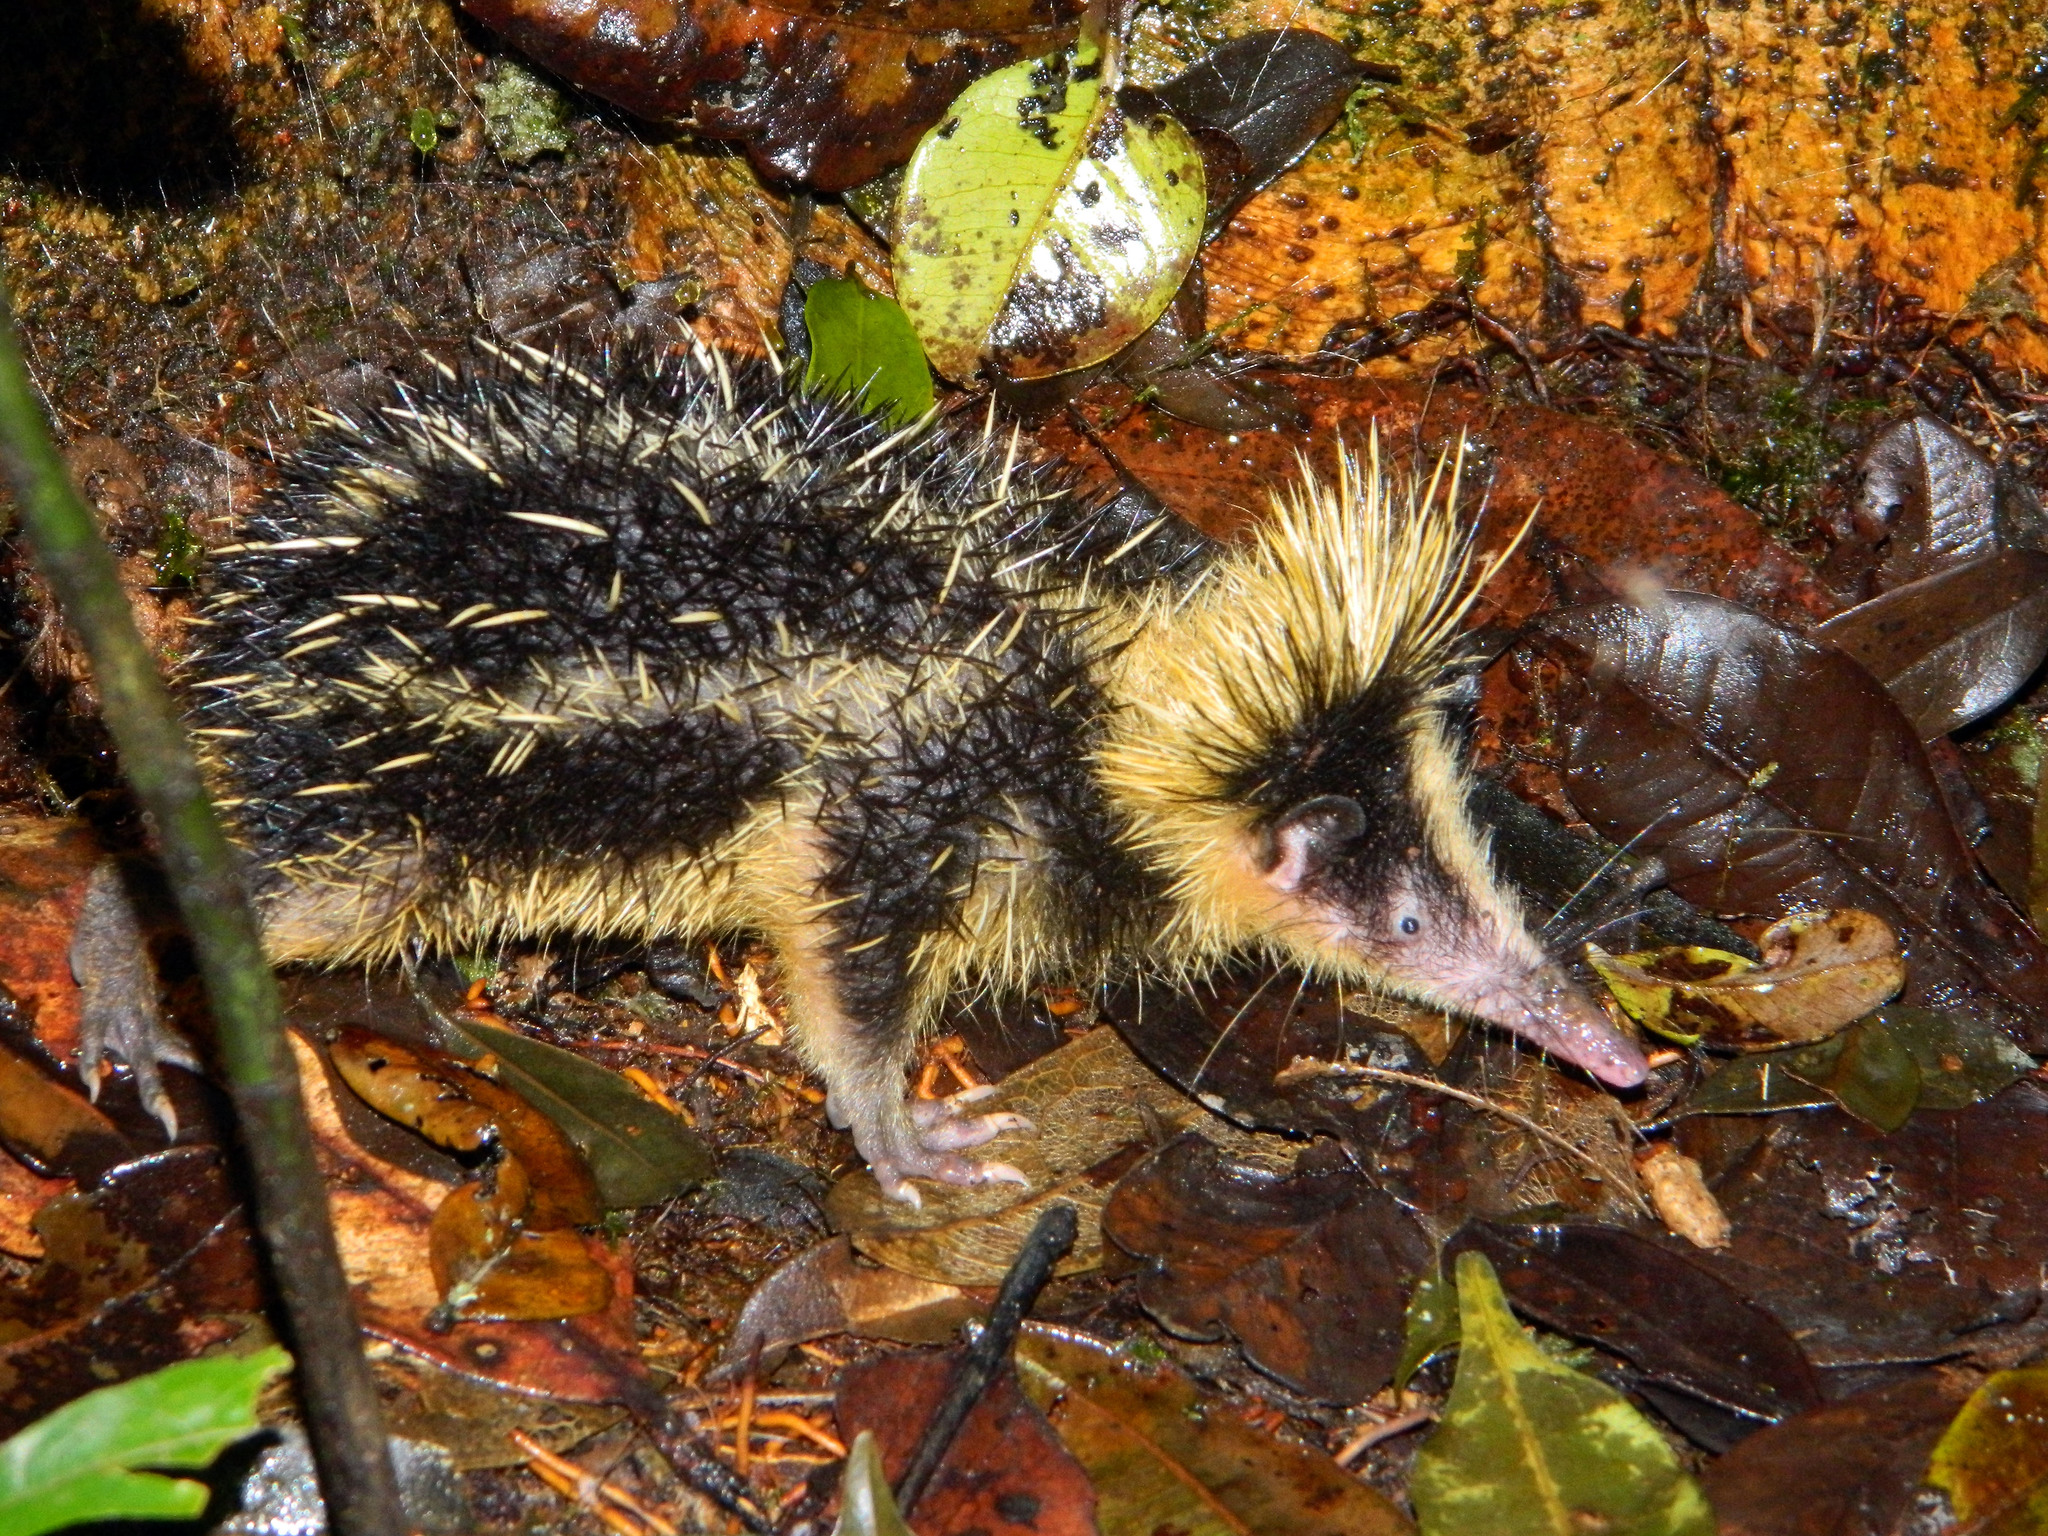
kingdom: Animalia
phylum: Chordata
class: Mammalia
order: Afrosoricida
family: Tenrecidae
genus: Hemicentetes
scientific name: Hemicentetes semispinosus
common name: Lowland streaked tenrec
